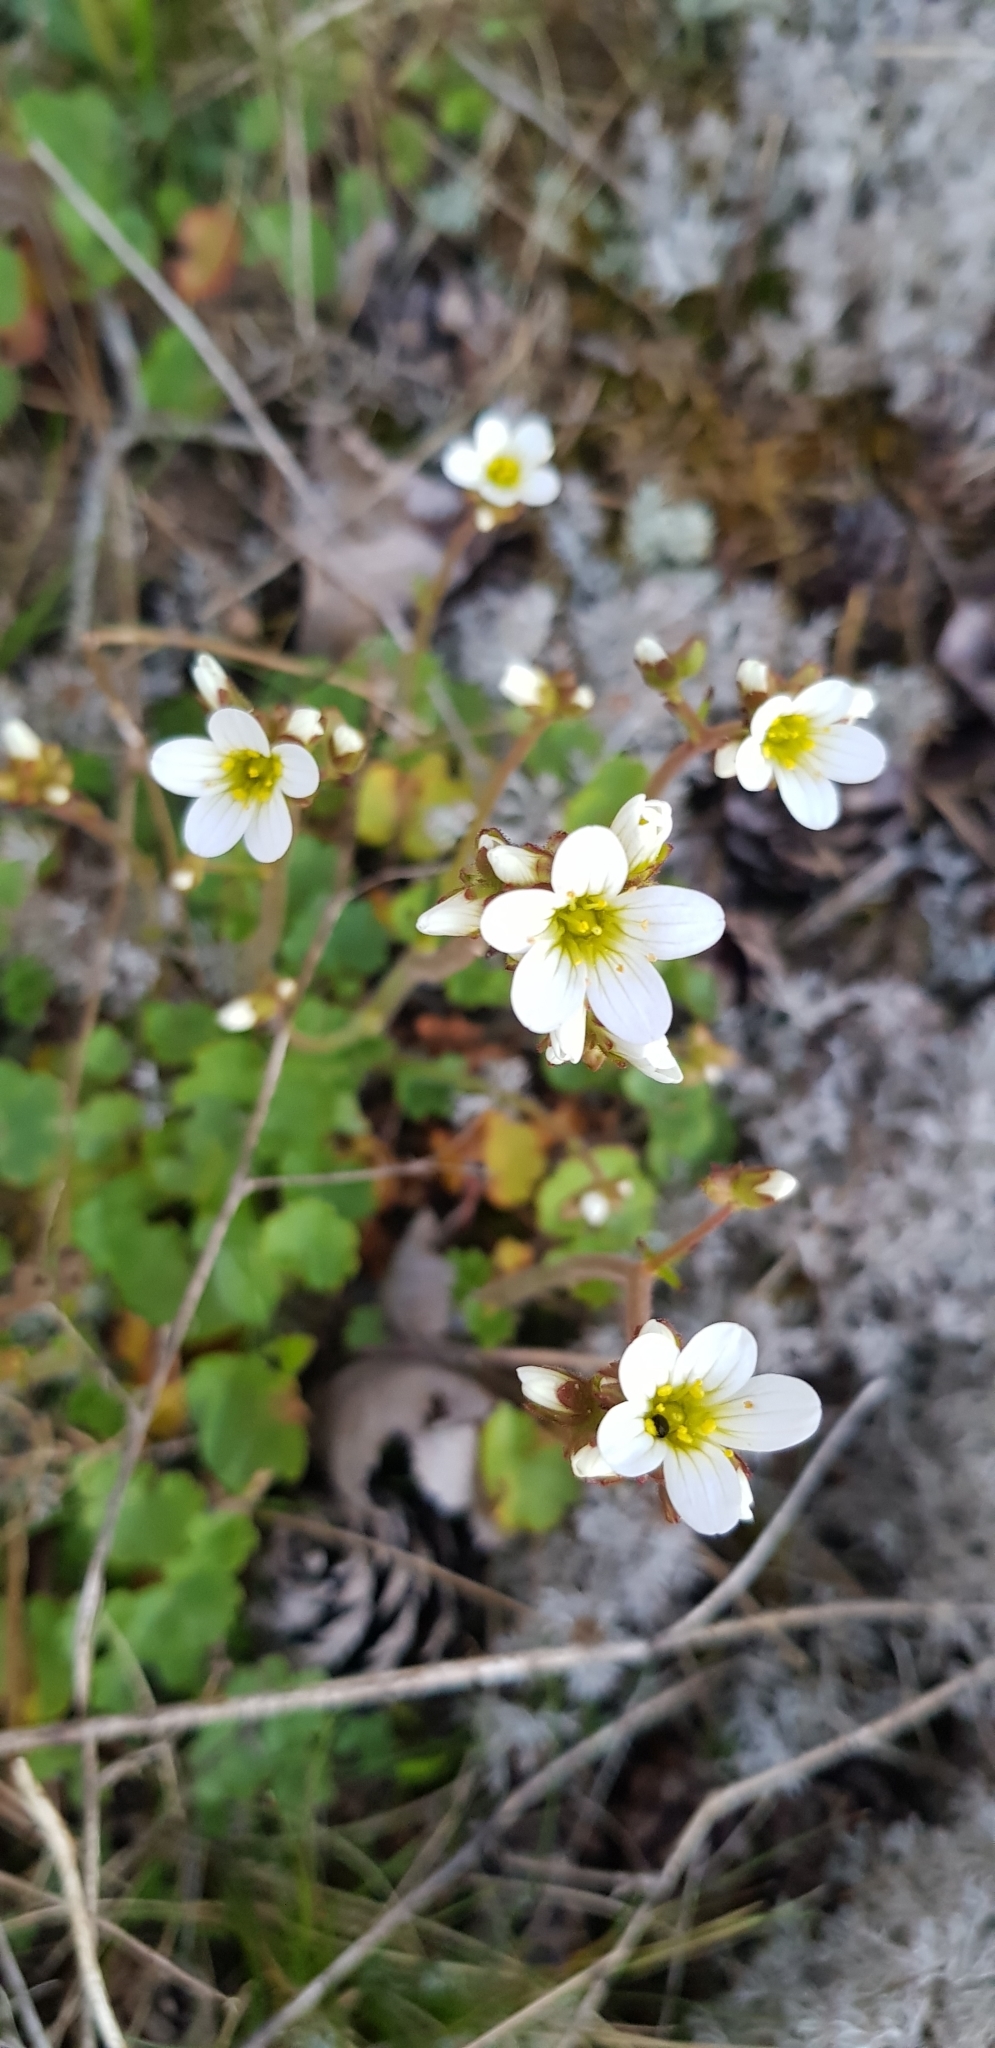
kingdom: Plantae
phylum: Tracheophyta
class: Magnoliopsida
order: Saxifragales
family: Saxifragaceae
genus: Saxifraga
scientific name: Saxifraga granulata
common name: Meadow saxifrage
